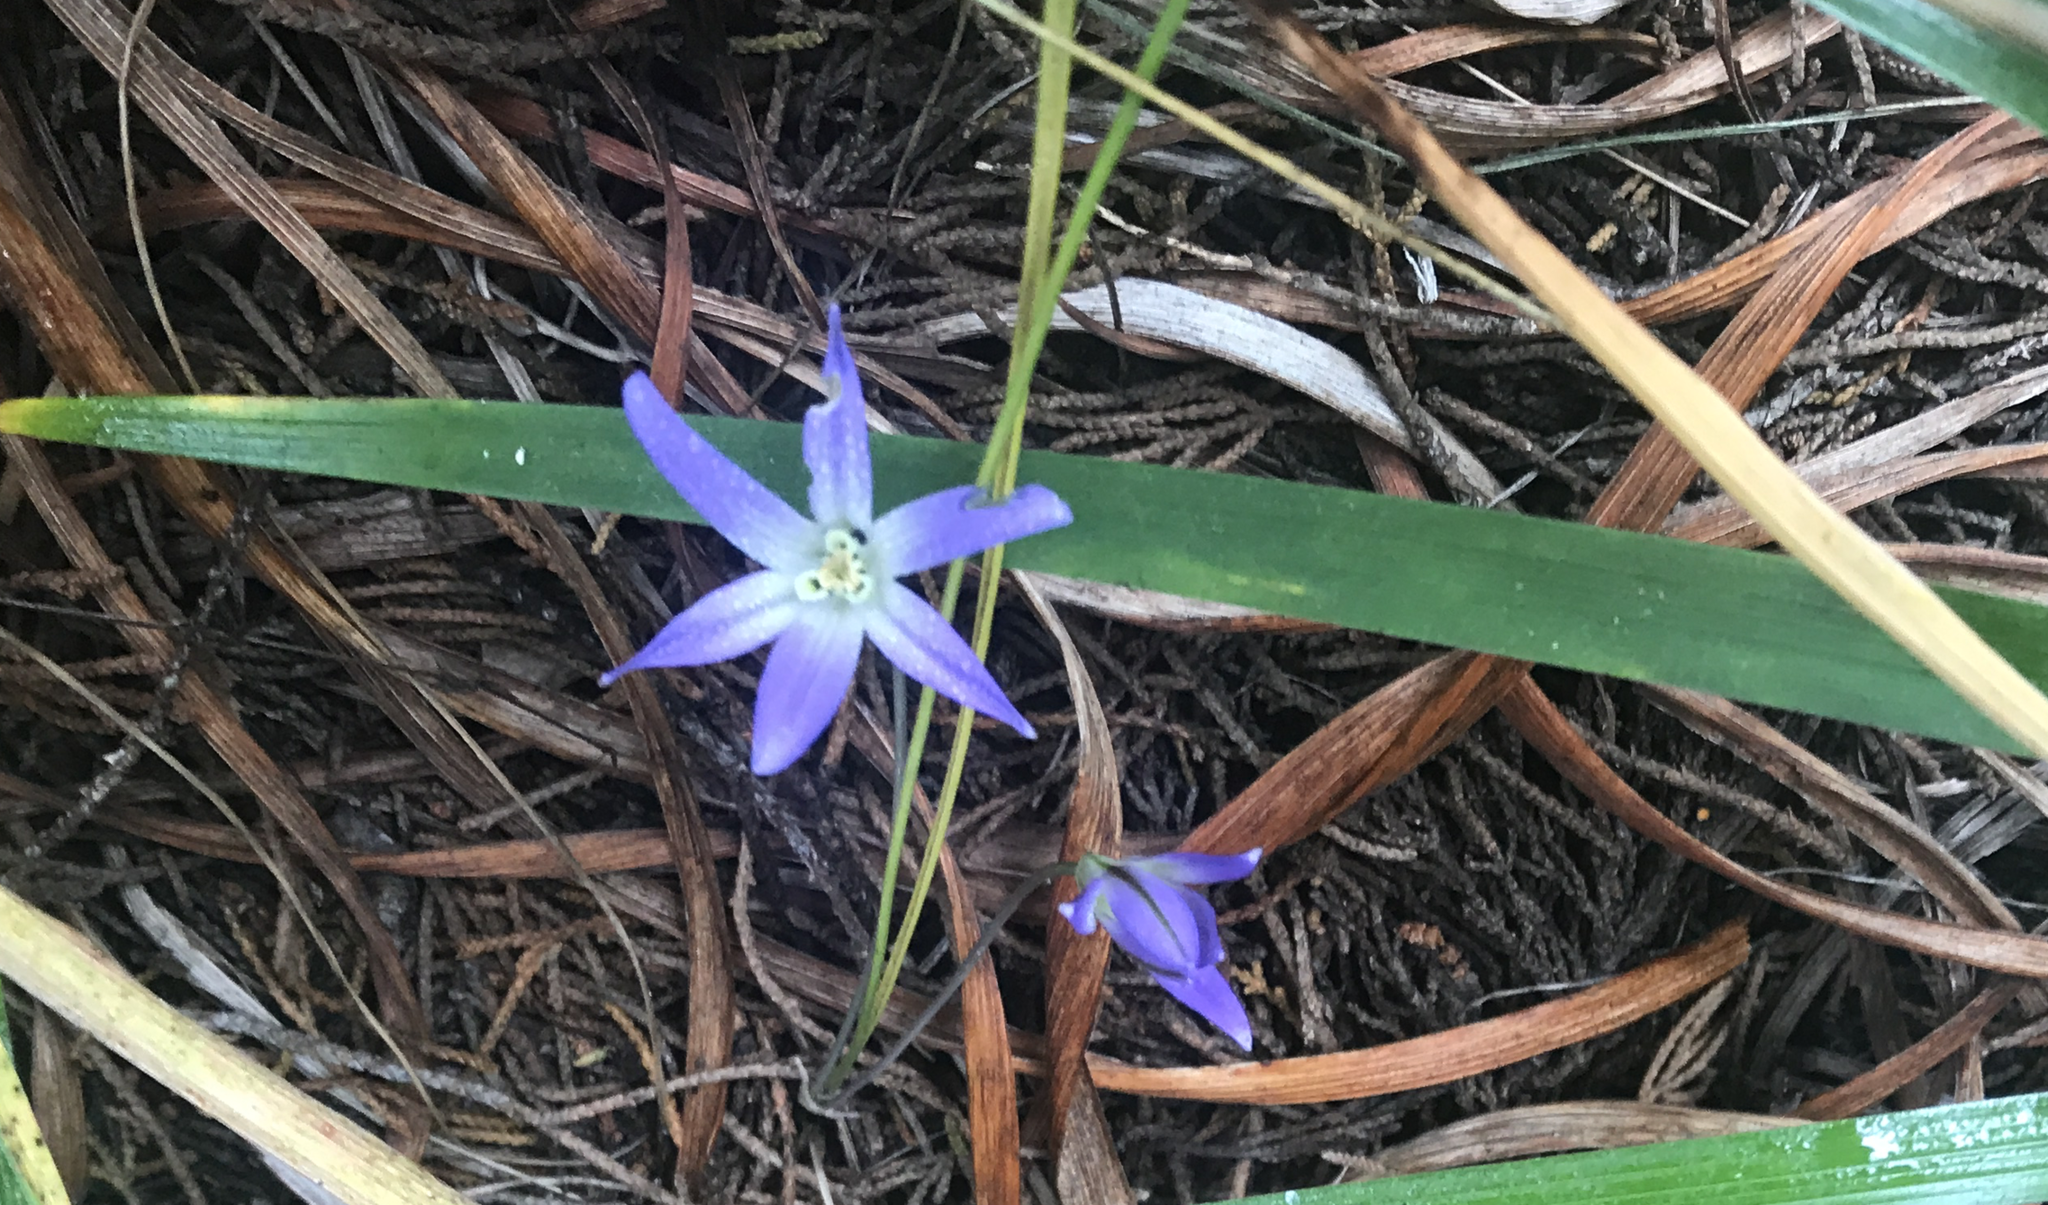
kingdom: Plantae
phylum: Tracheophyta
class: Liliopsida
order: Asparagales
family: Asparagaceae
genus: Brodiaea
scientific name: Brodiaea terrestris
